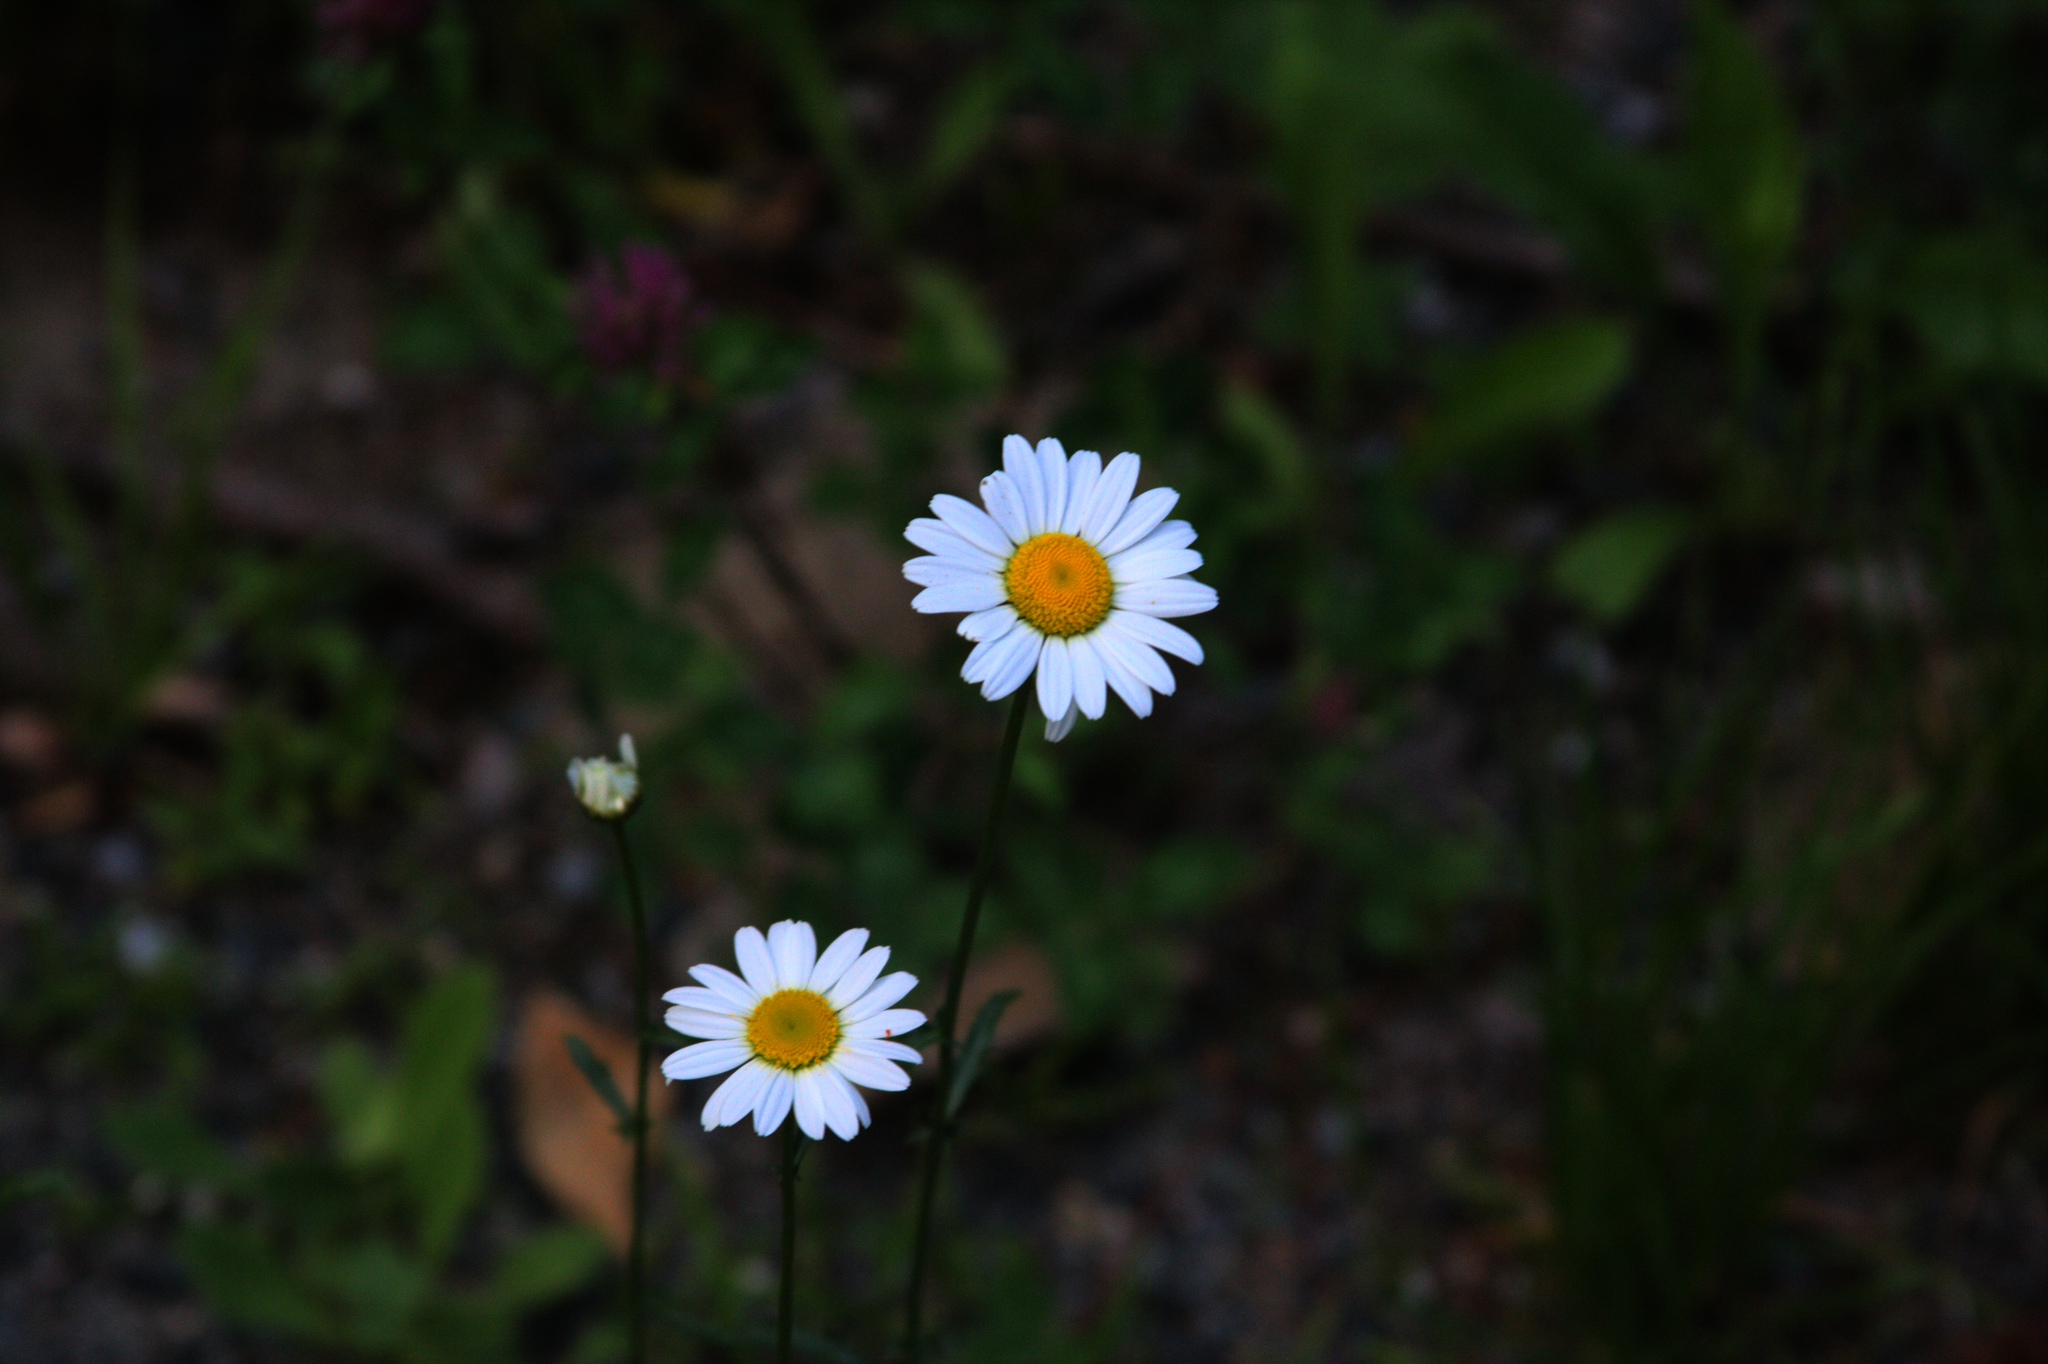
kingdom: Plantae
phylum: Tracheophyta
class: Magnoliopsida
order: Asterales
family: Asteraceae
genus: Leucanthemum
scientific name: Leucanthemum vulgare
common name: Oxeye daisy
